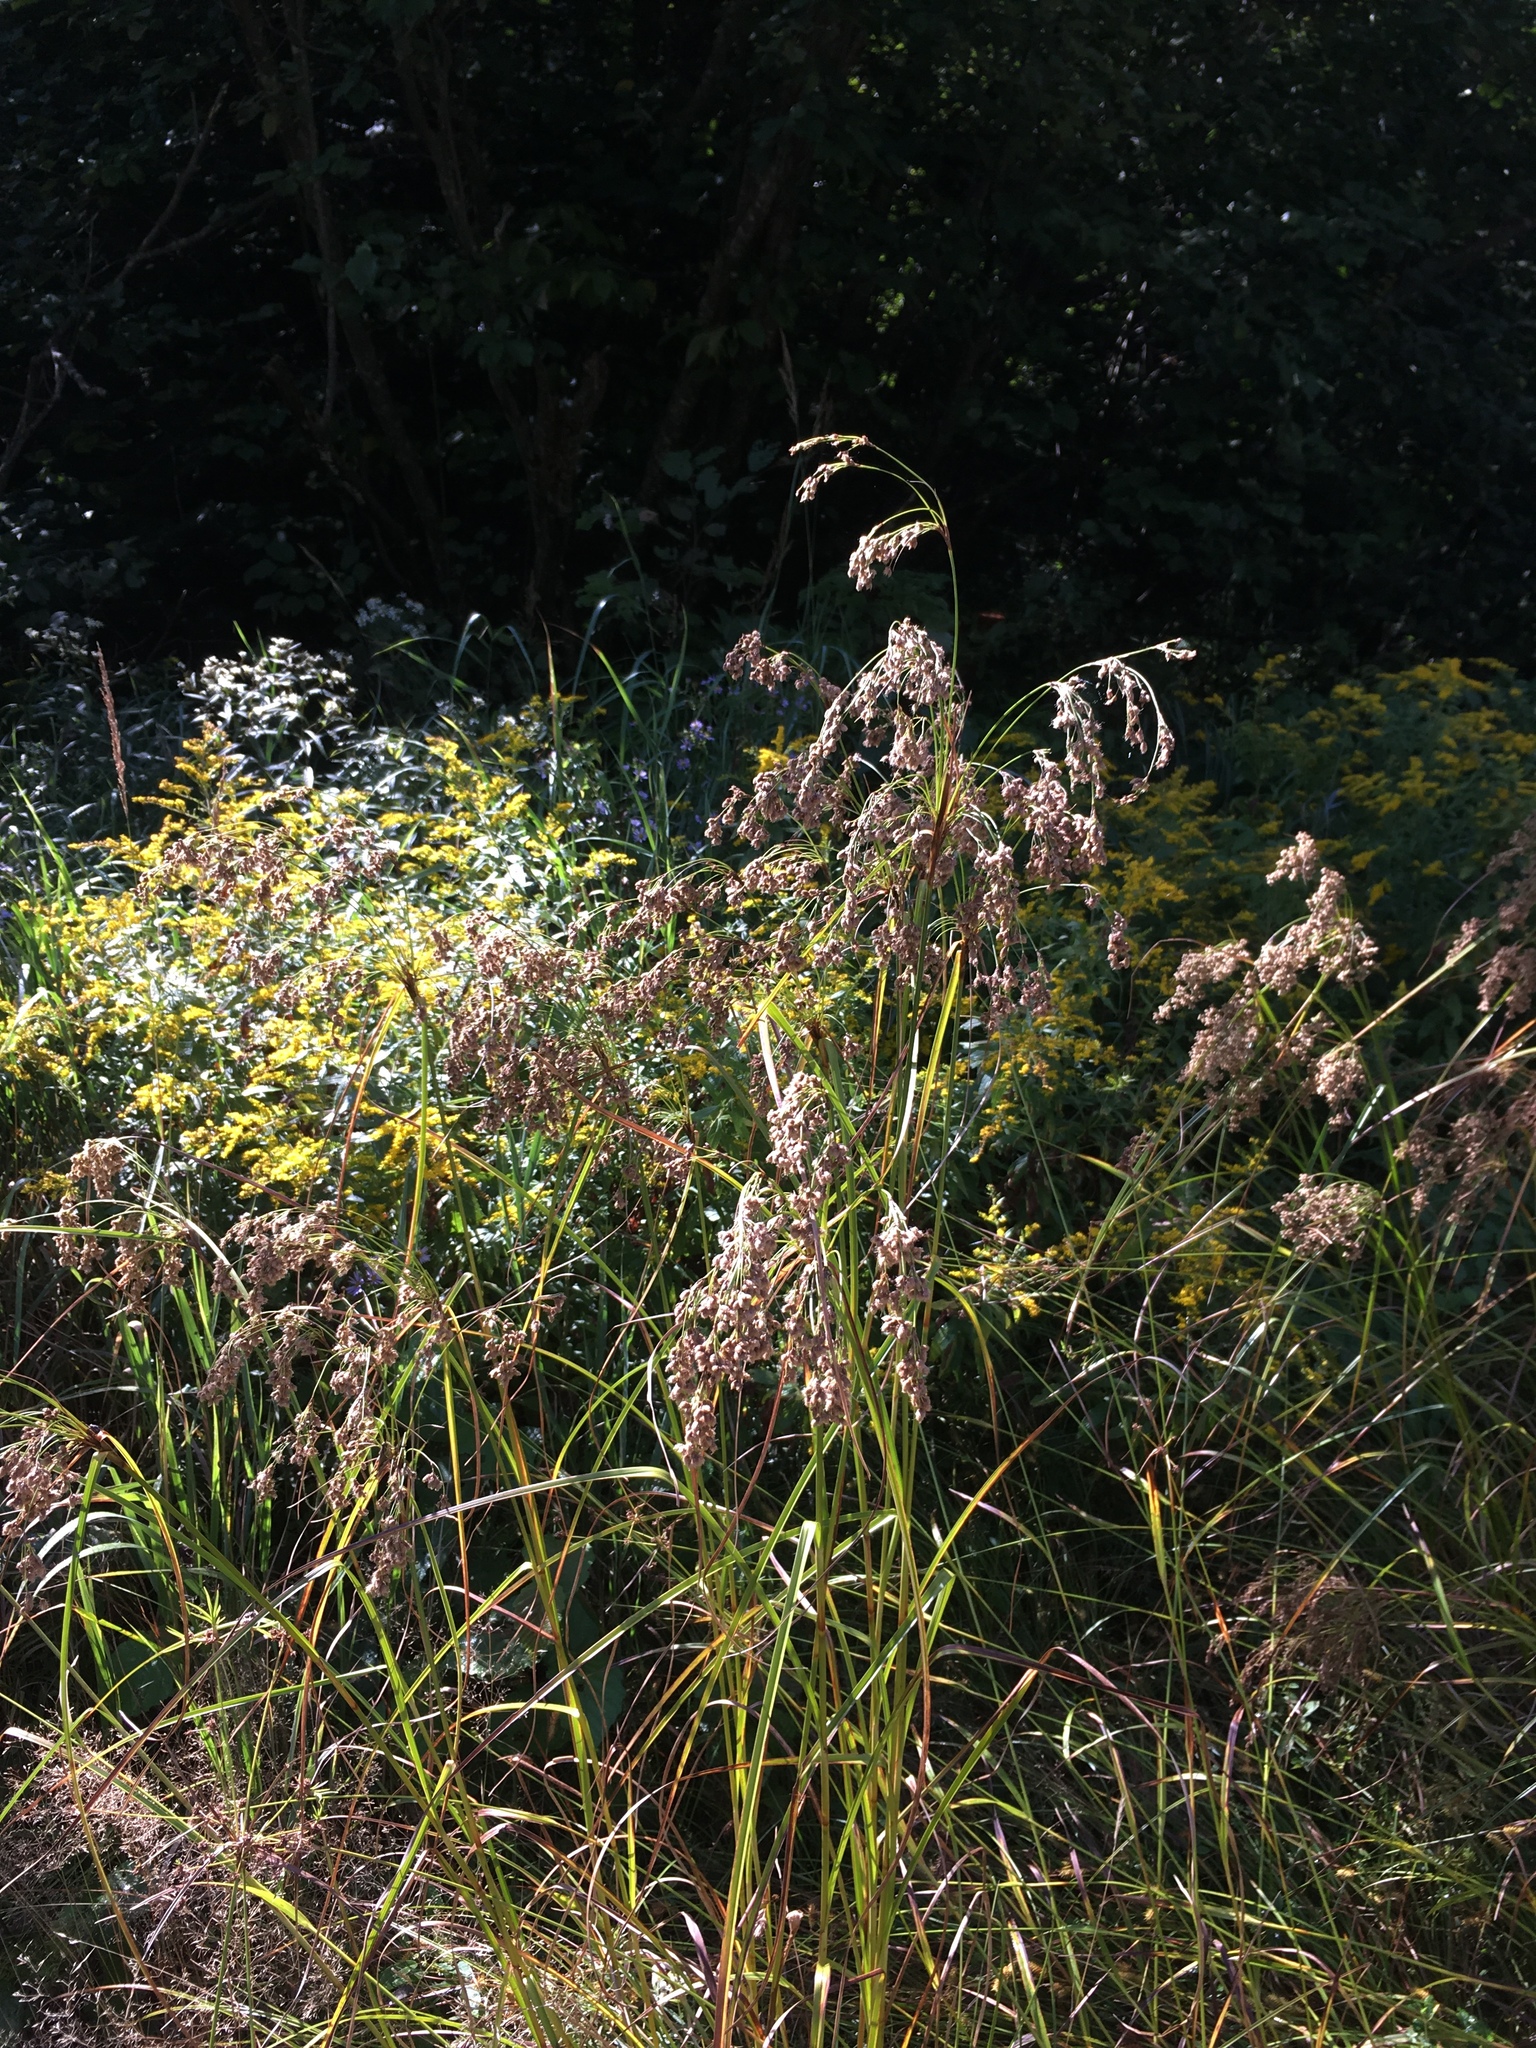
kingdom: Plantae
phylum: Tracheophyta
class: Liliopsida
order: Poales
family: Cyperaceae
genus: Scirpus
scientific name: Scirpus cyperinus
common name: Black-sheathed bulrush
